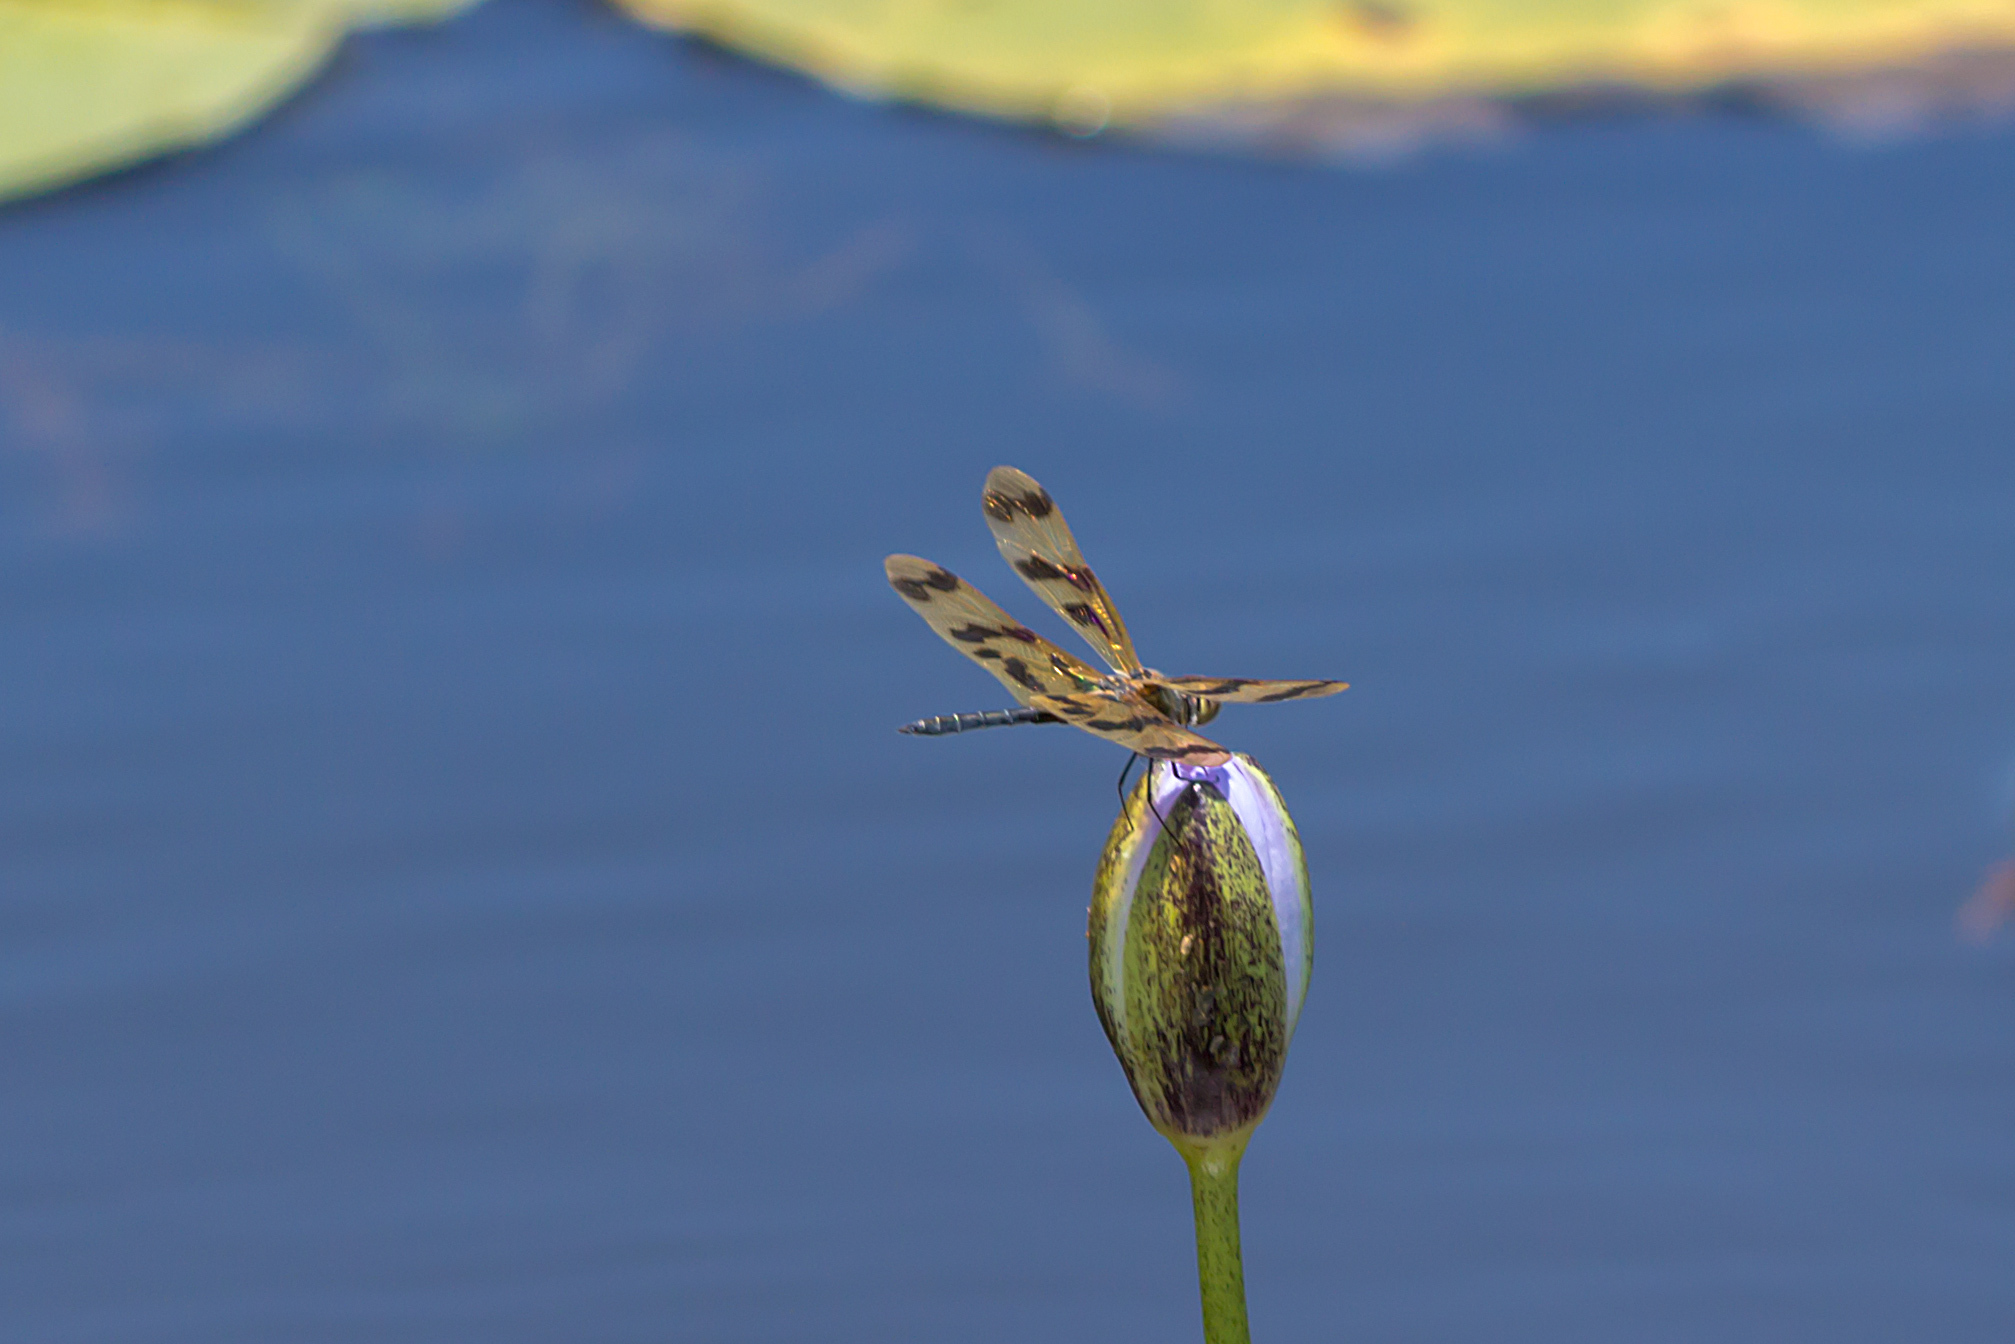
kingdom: Animalia
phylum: Arthropoda
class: Insecta
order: Odonata
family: Libellulidae
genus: Rhyothemis
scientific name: Rhyothemis graphiptera
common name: Graphic flutterer
